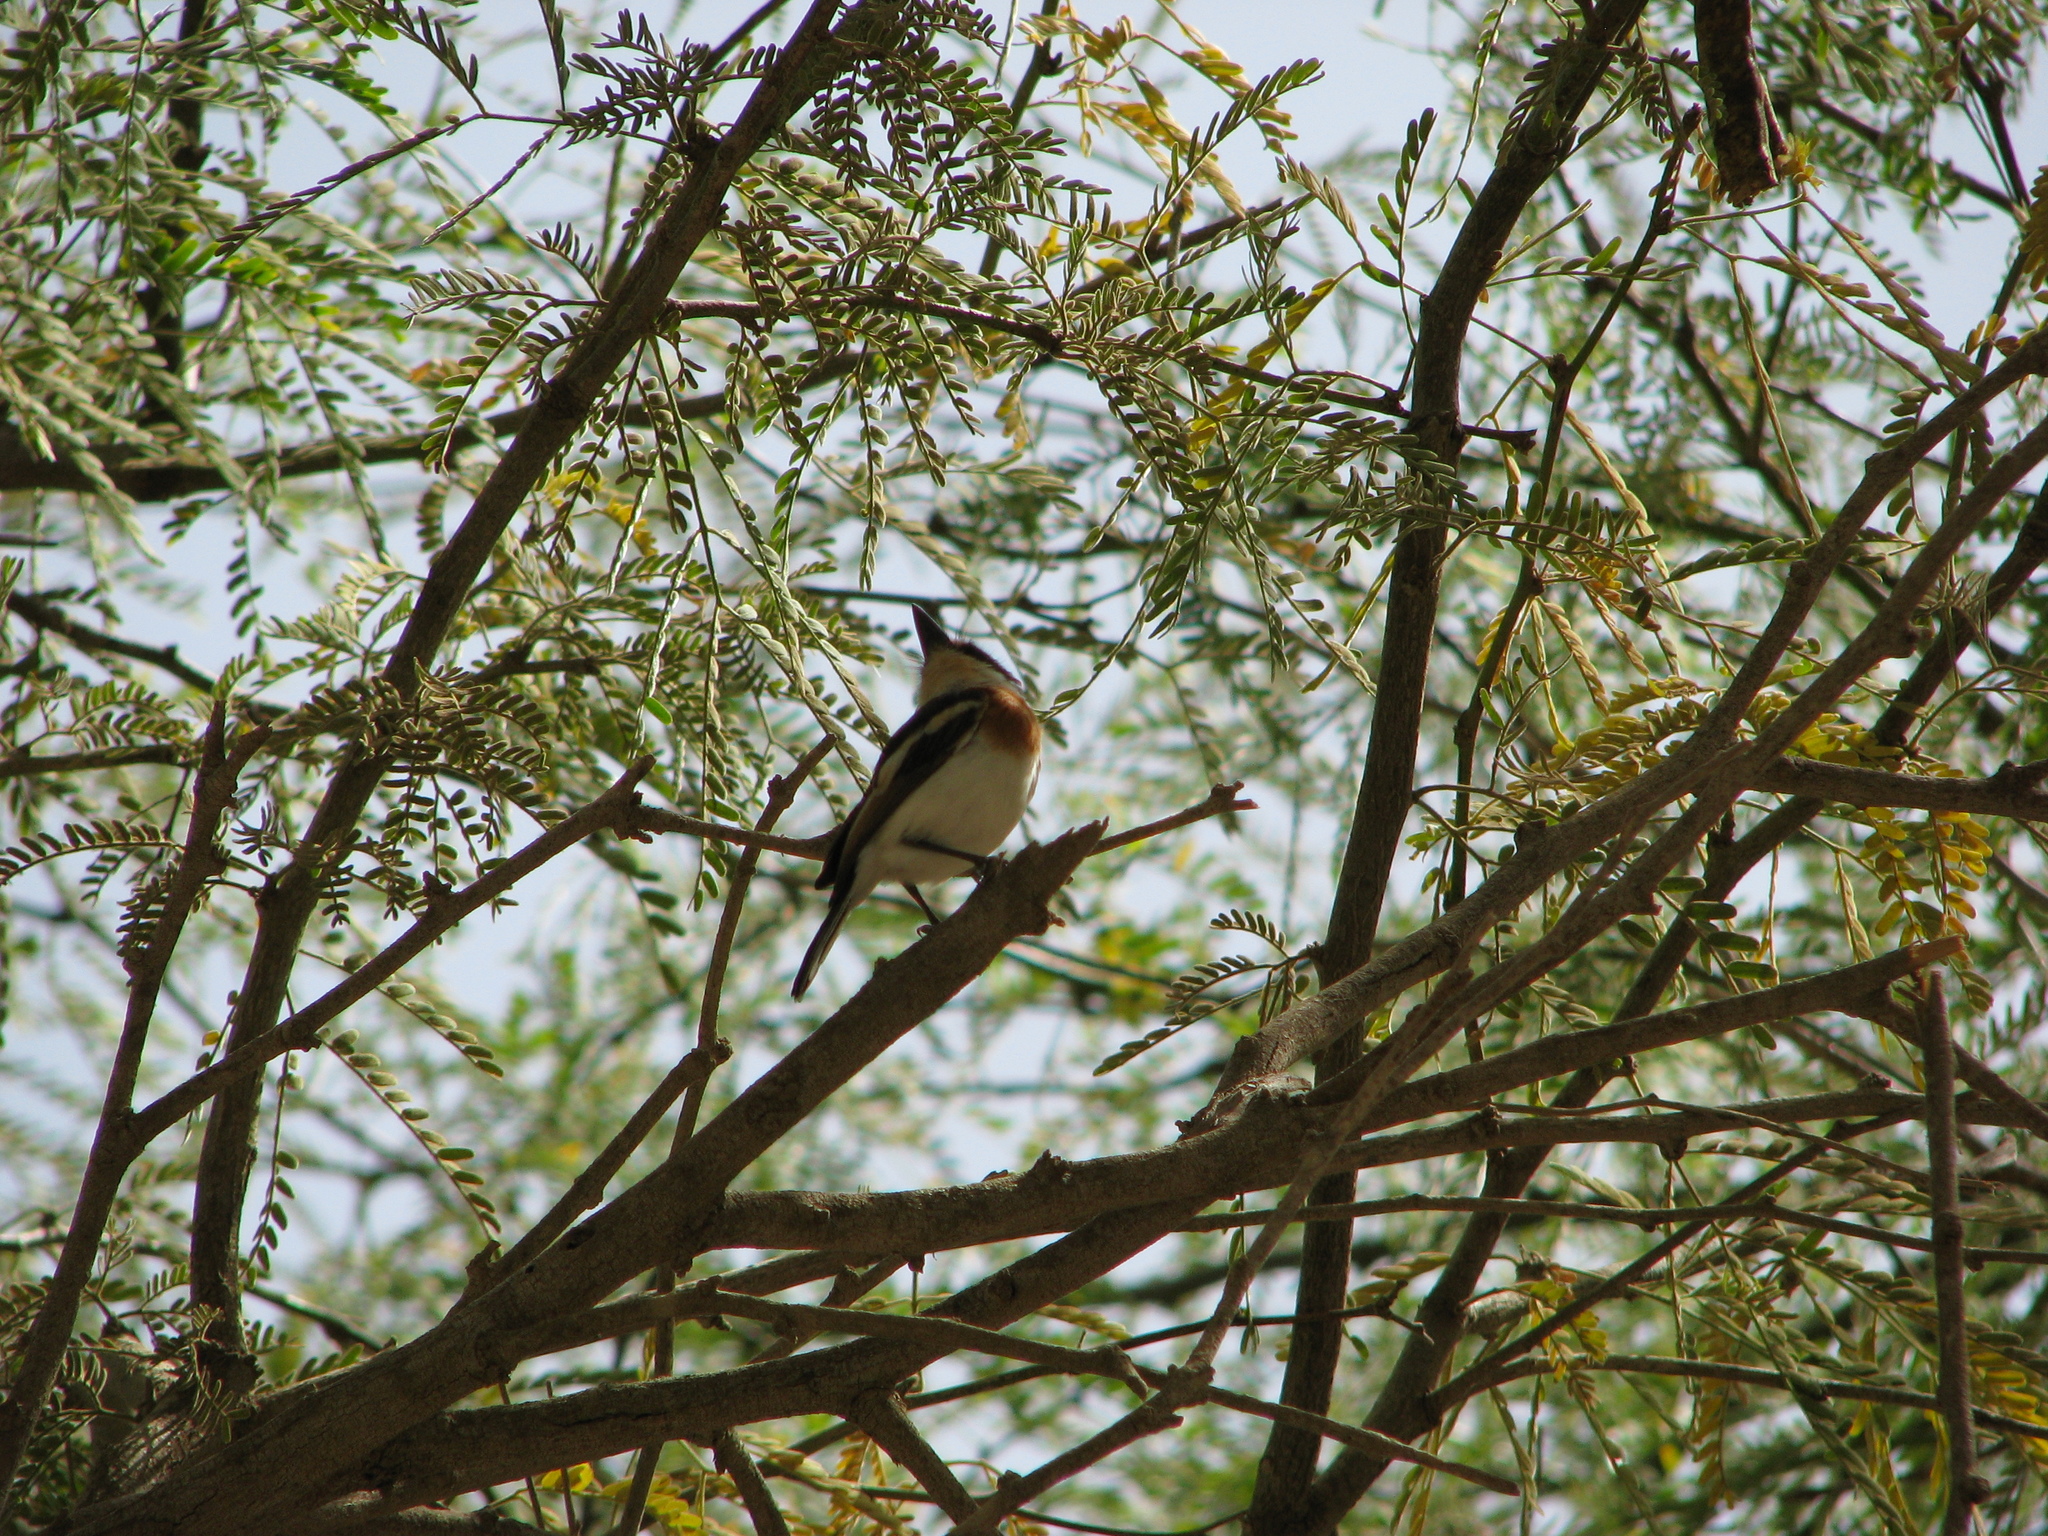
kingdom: Animalia
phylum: Chordata
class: Aves
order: Passeriformes
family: Platysteiridae
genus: Batis
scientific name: Batis senegalensis
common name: Senegal batis
